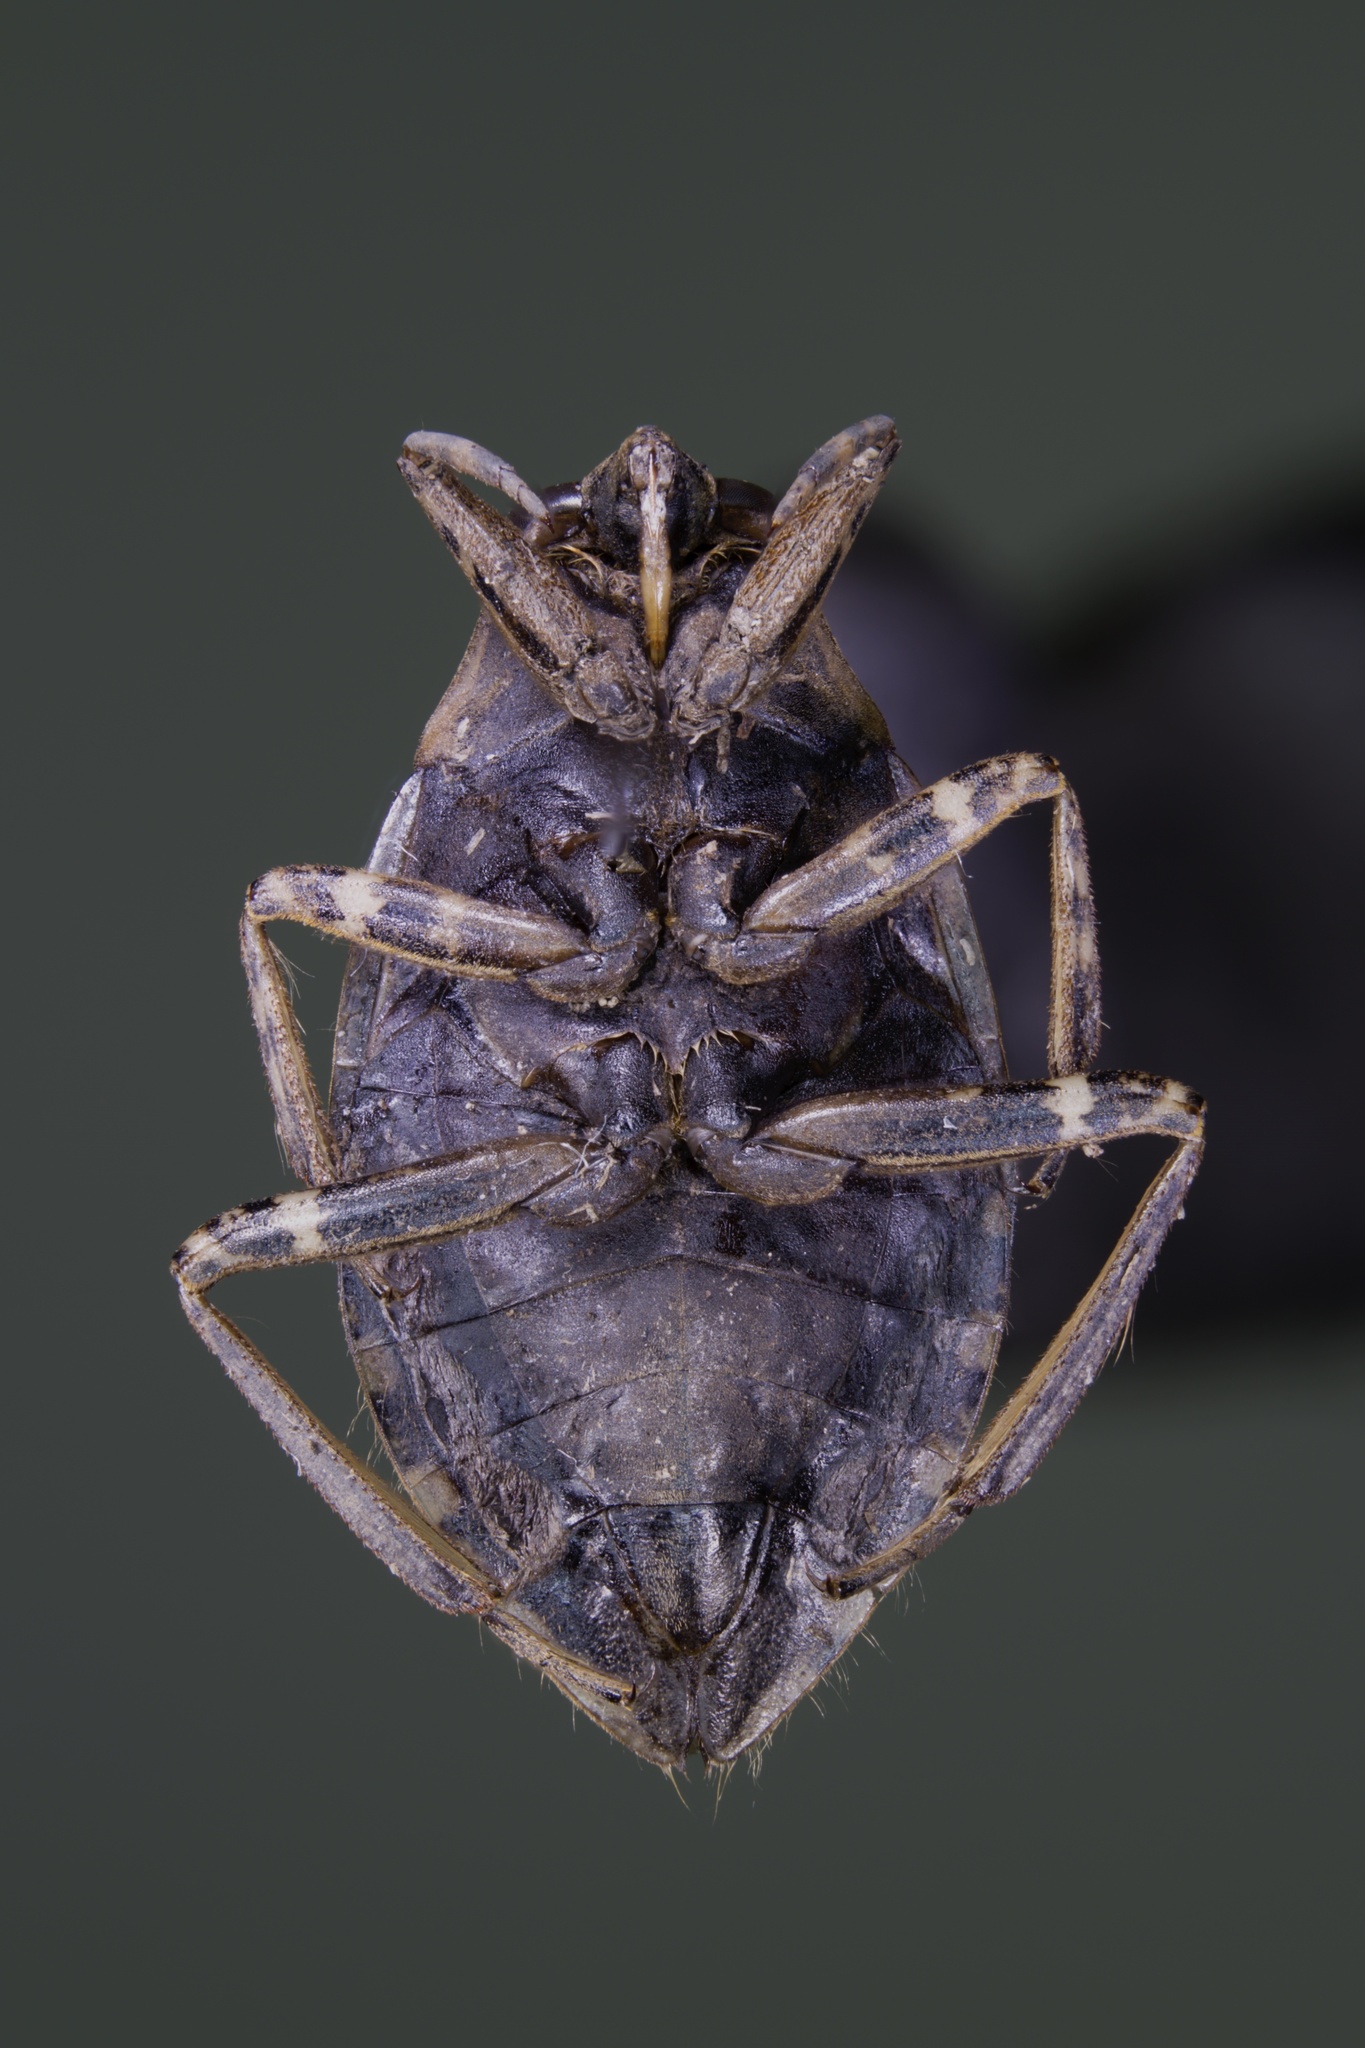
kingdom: Animalia
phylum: Arthropoda
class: Insecta
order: Hemiptera
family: Belostomatidae
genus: Belostoma
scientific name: Belostoma testaceum
